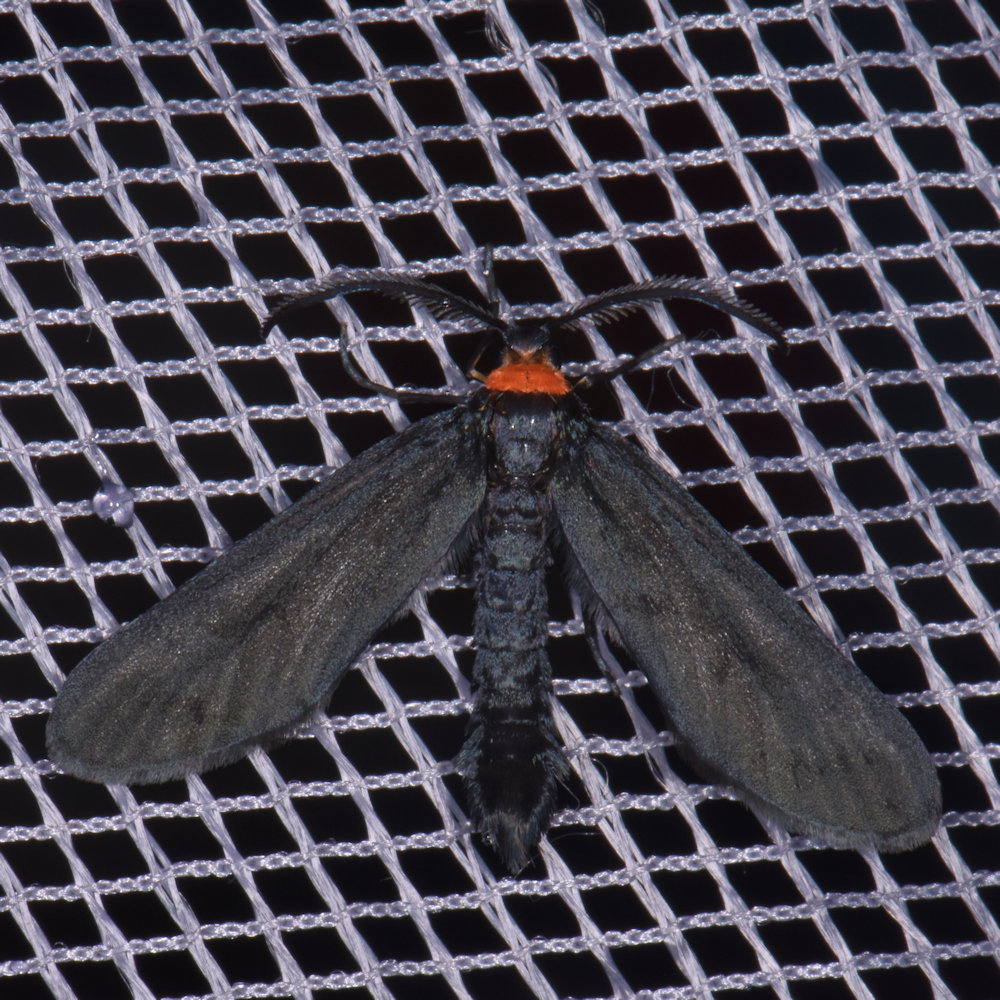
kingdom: Animalia
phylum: Arthropoda
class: Insecta
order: Lepidoptera
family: Zygaenidae
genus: Harrisina
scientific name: Harrisina americana
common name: Grapeleaf skeletonizer moth
